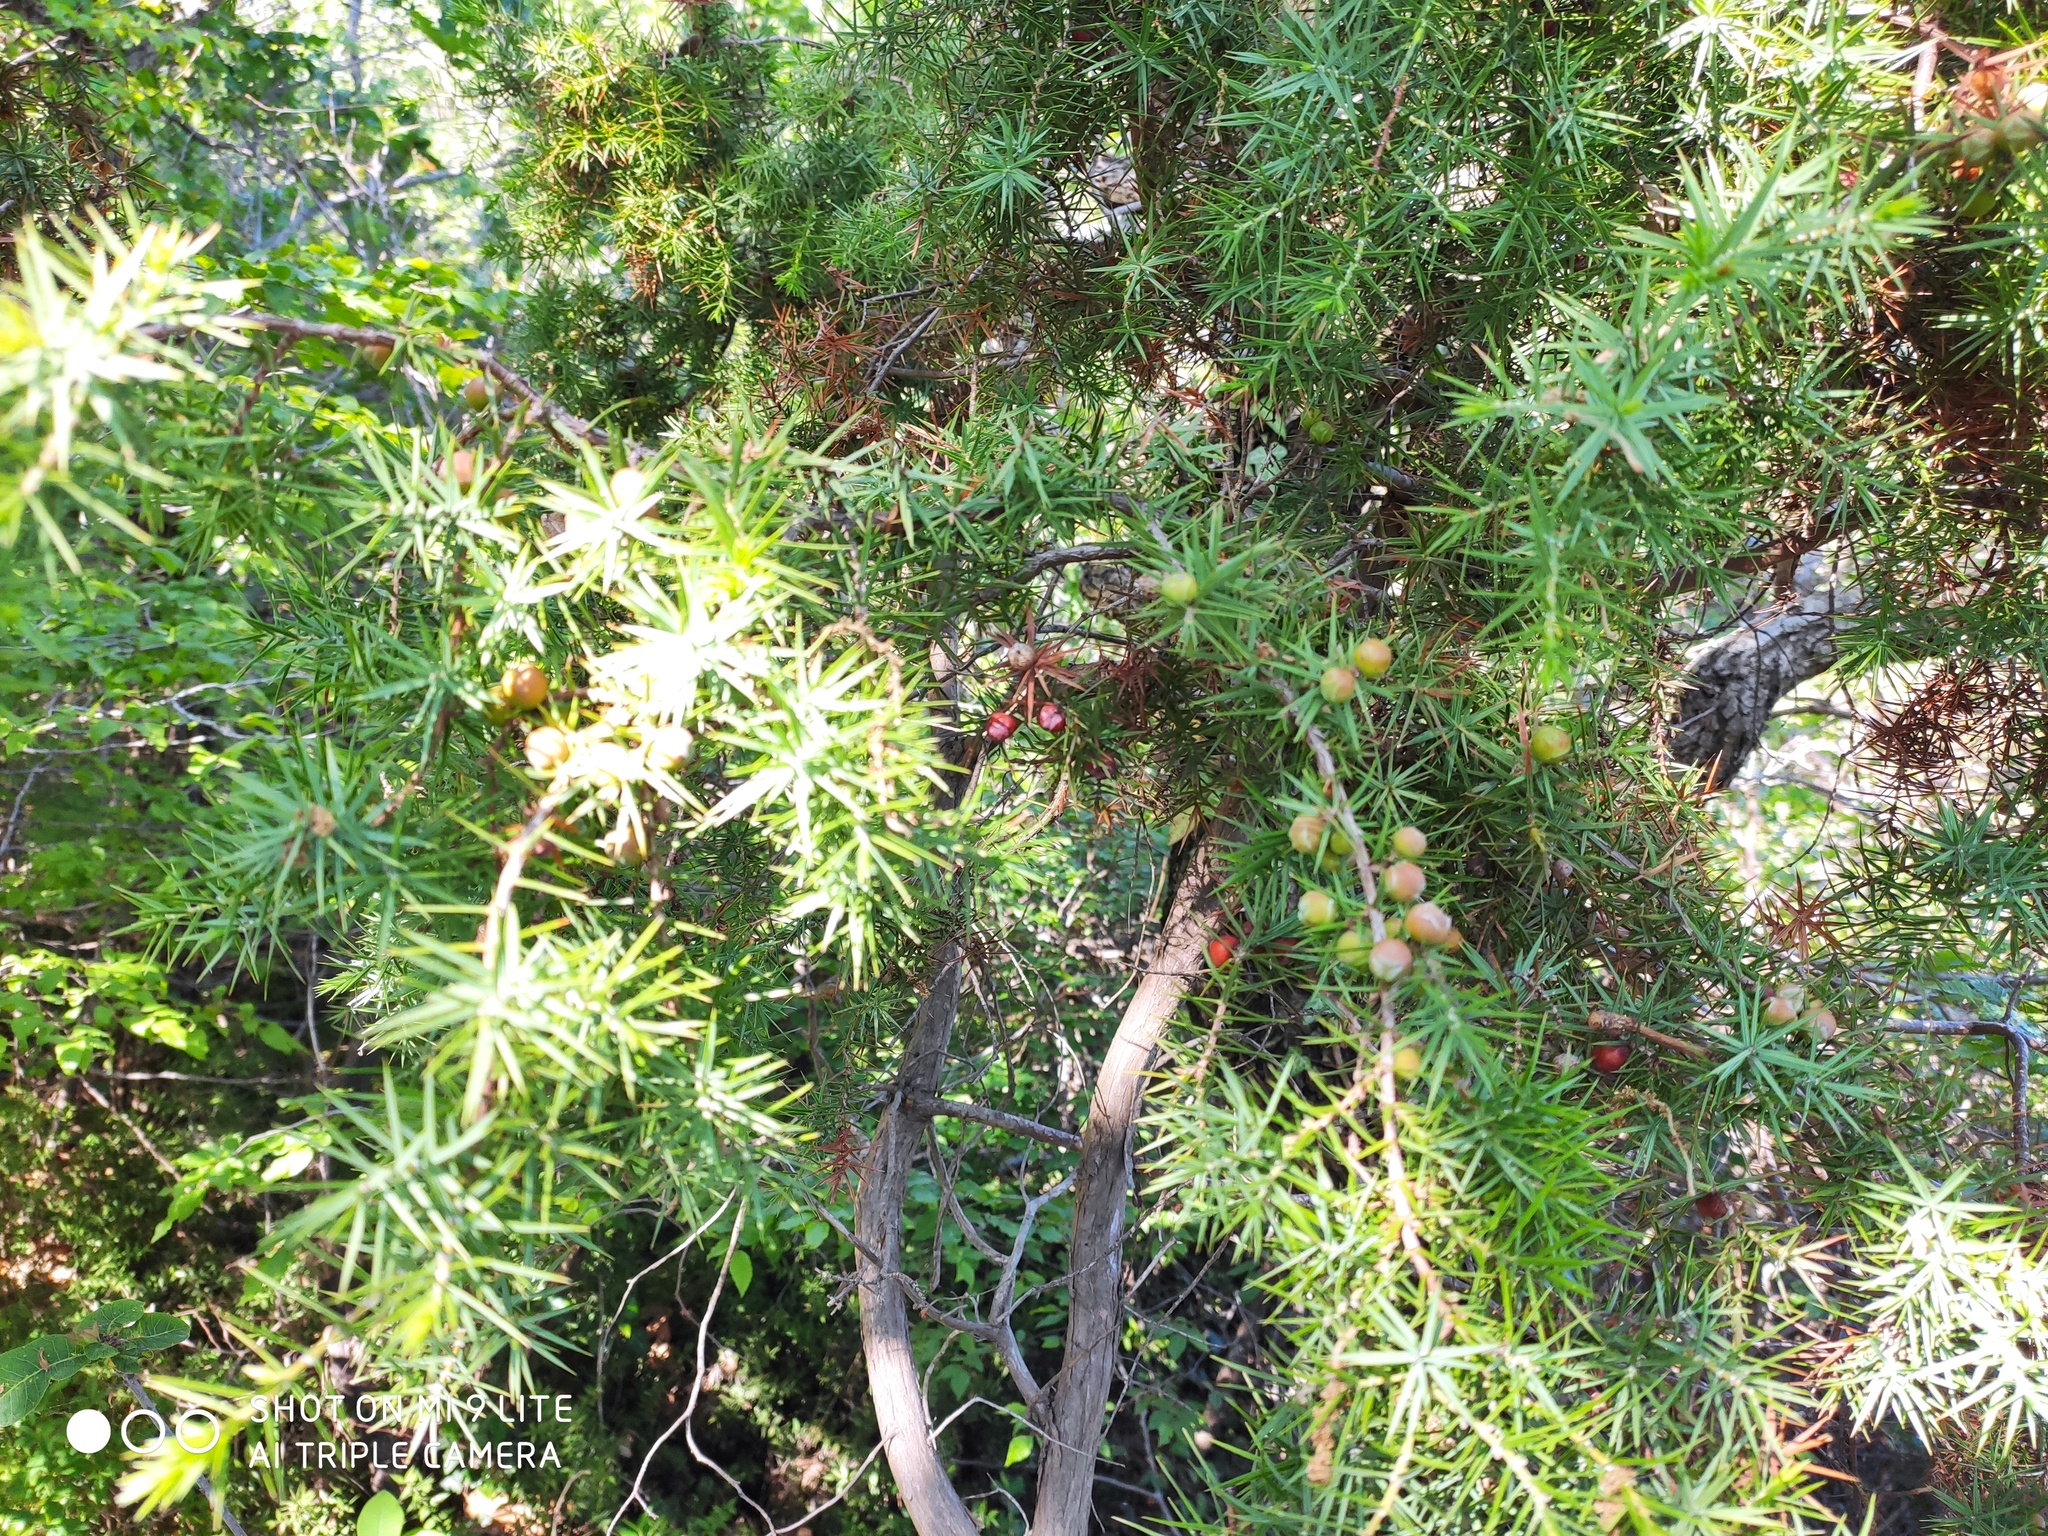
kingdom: Plantae
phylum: Tracheophyta
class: Pinopsida
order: Pinales
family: Cupressaceae
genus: Juniperus
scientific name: Juniperus oxycedrus
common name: Prickly juniper
